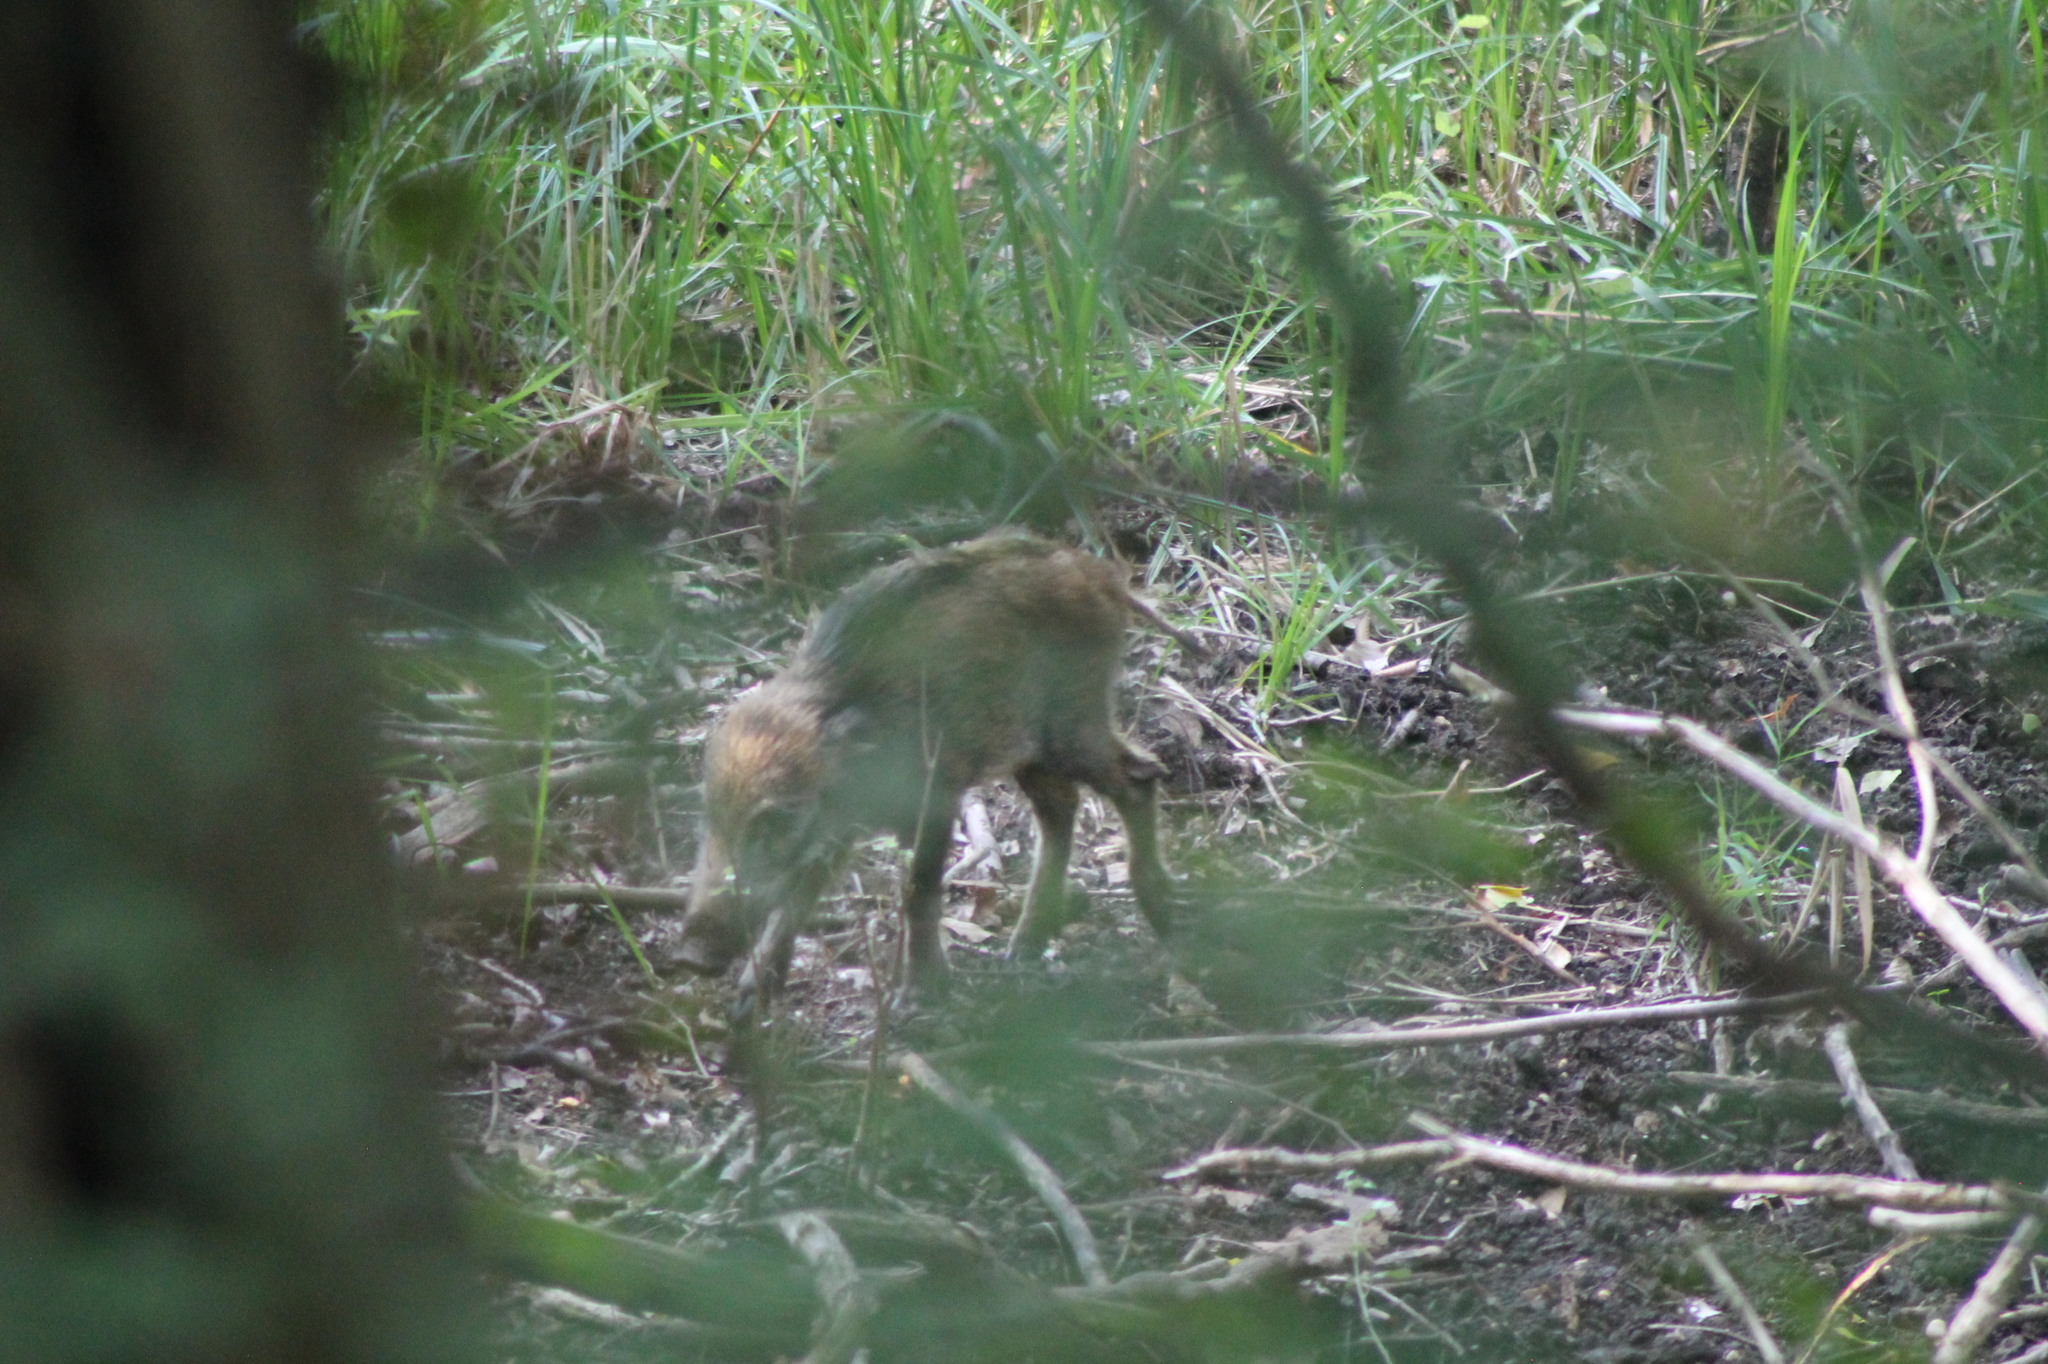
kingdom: Animalia
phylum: Chordata
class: Mammalia
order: Artiodactyla
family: Suidae
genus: Sus
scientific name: Sus scrofa
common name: Wild boar
